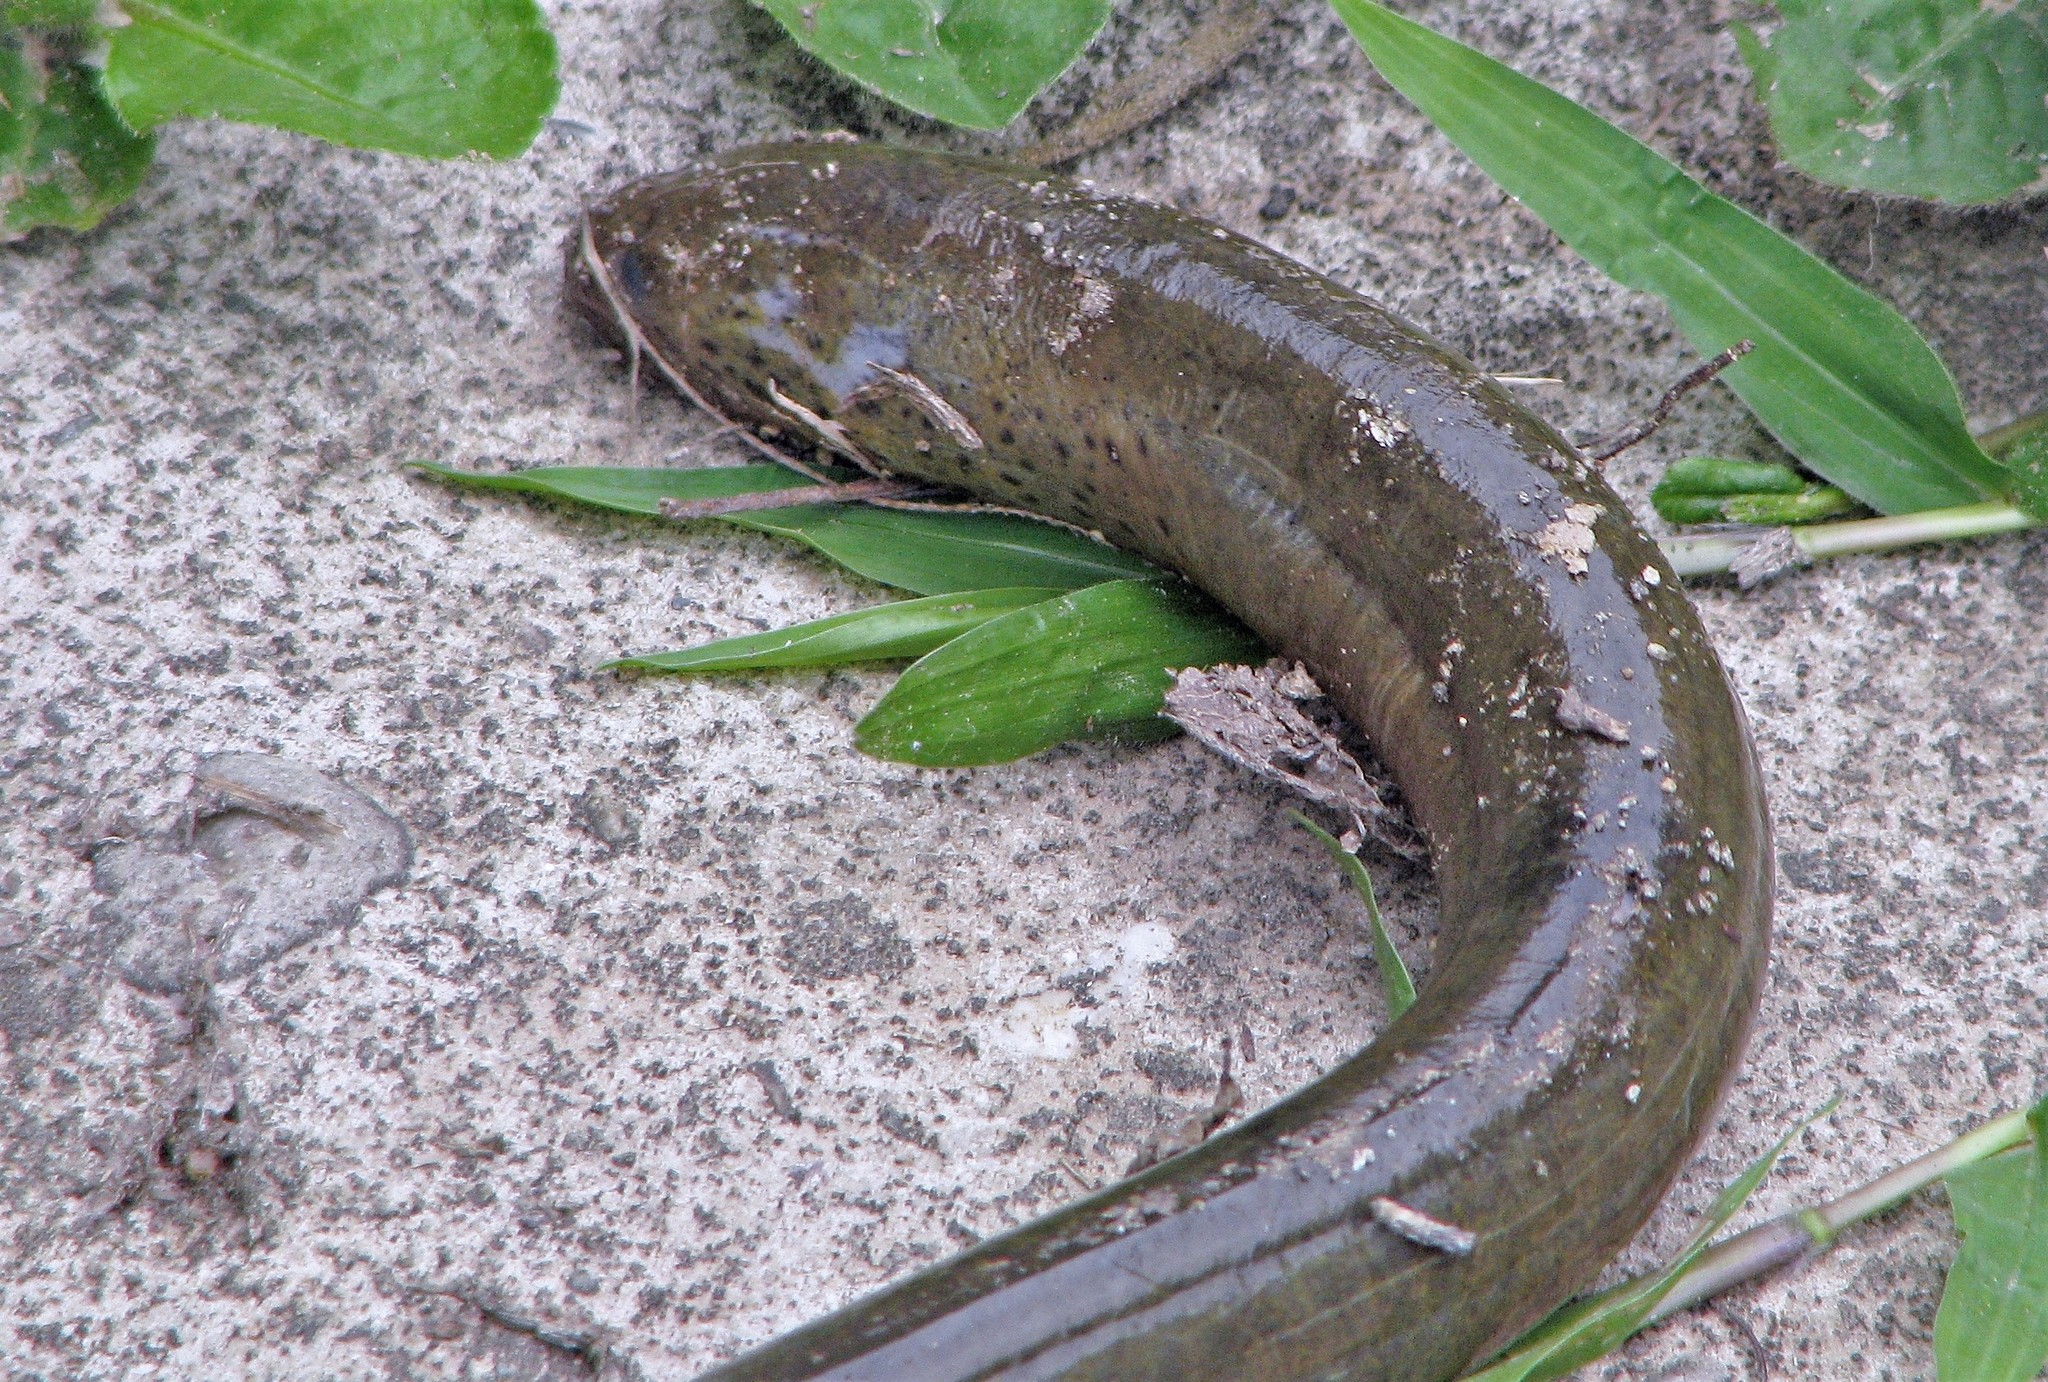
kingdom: Animalia
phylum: Chordata
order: Synbranchiformes
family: Synbranchidae
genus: Synbranchus
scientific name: Synbranchus marmoratus
